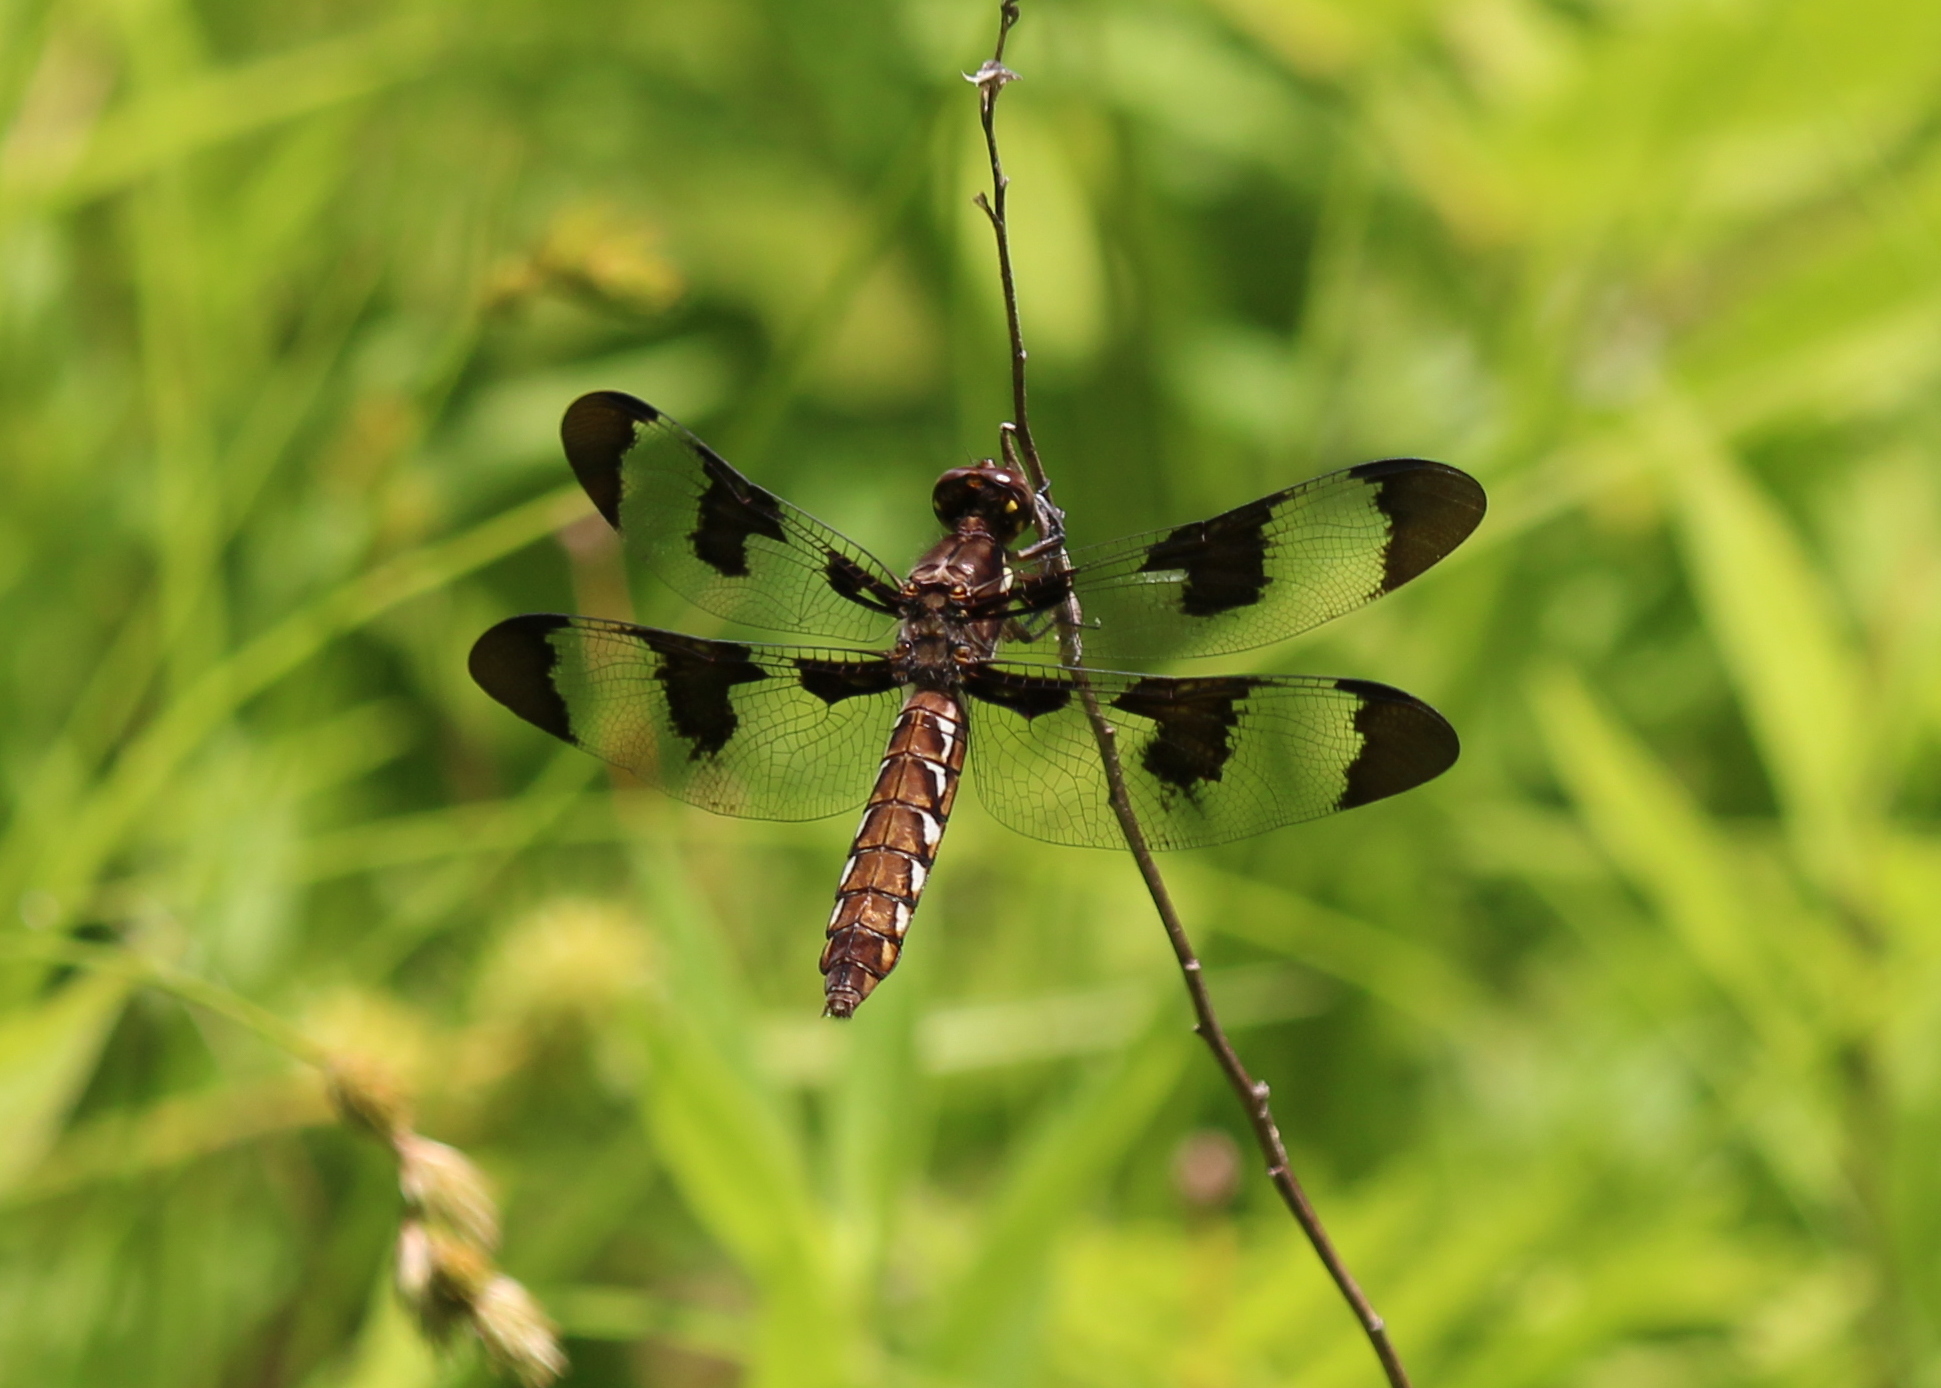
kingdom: Animalia
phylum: Arthropoda
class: Insecta
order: Odonata
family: Libellulidae
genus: Plathemis
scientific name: Plathemis lydia
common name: Common whitetail
